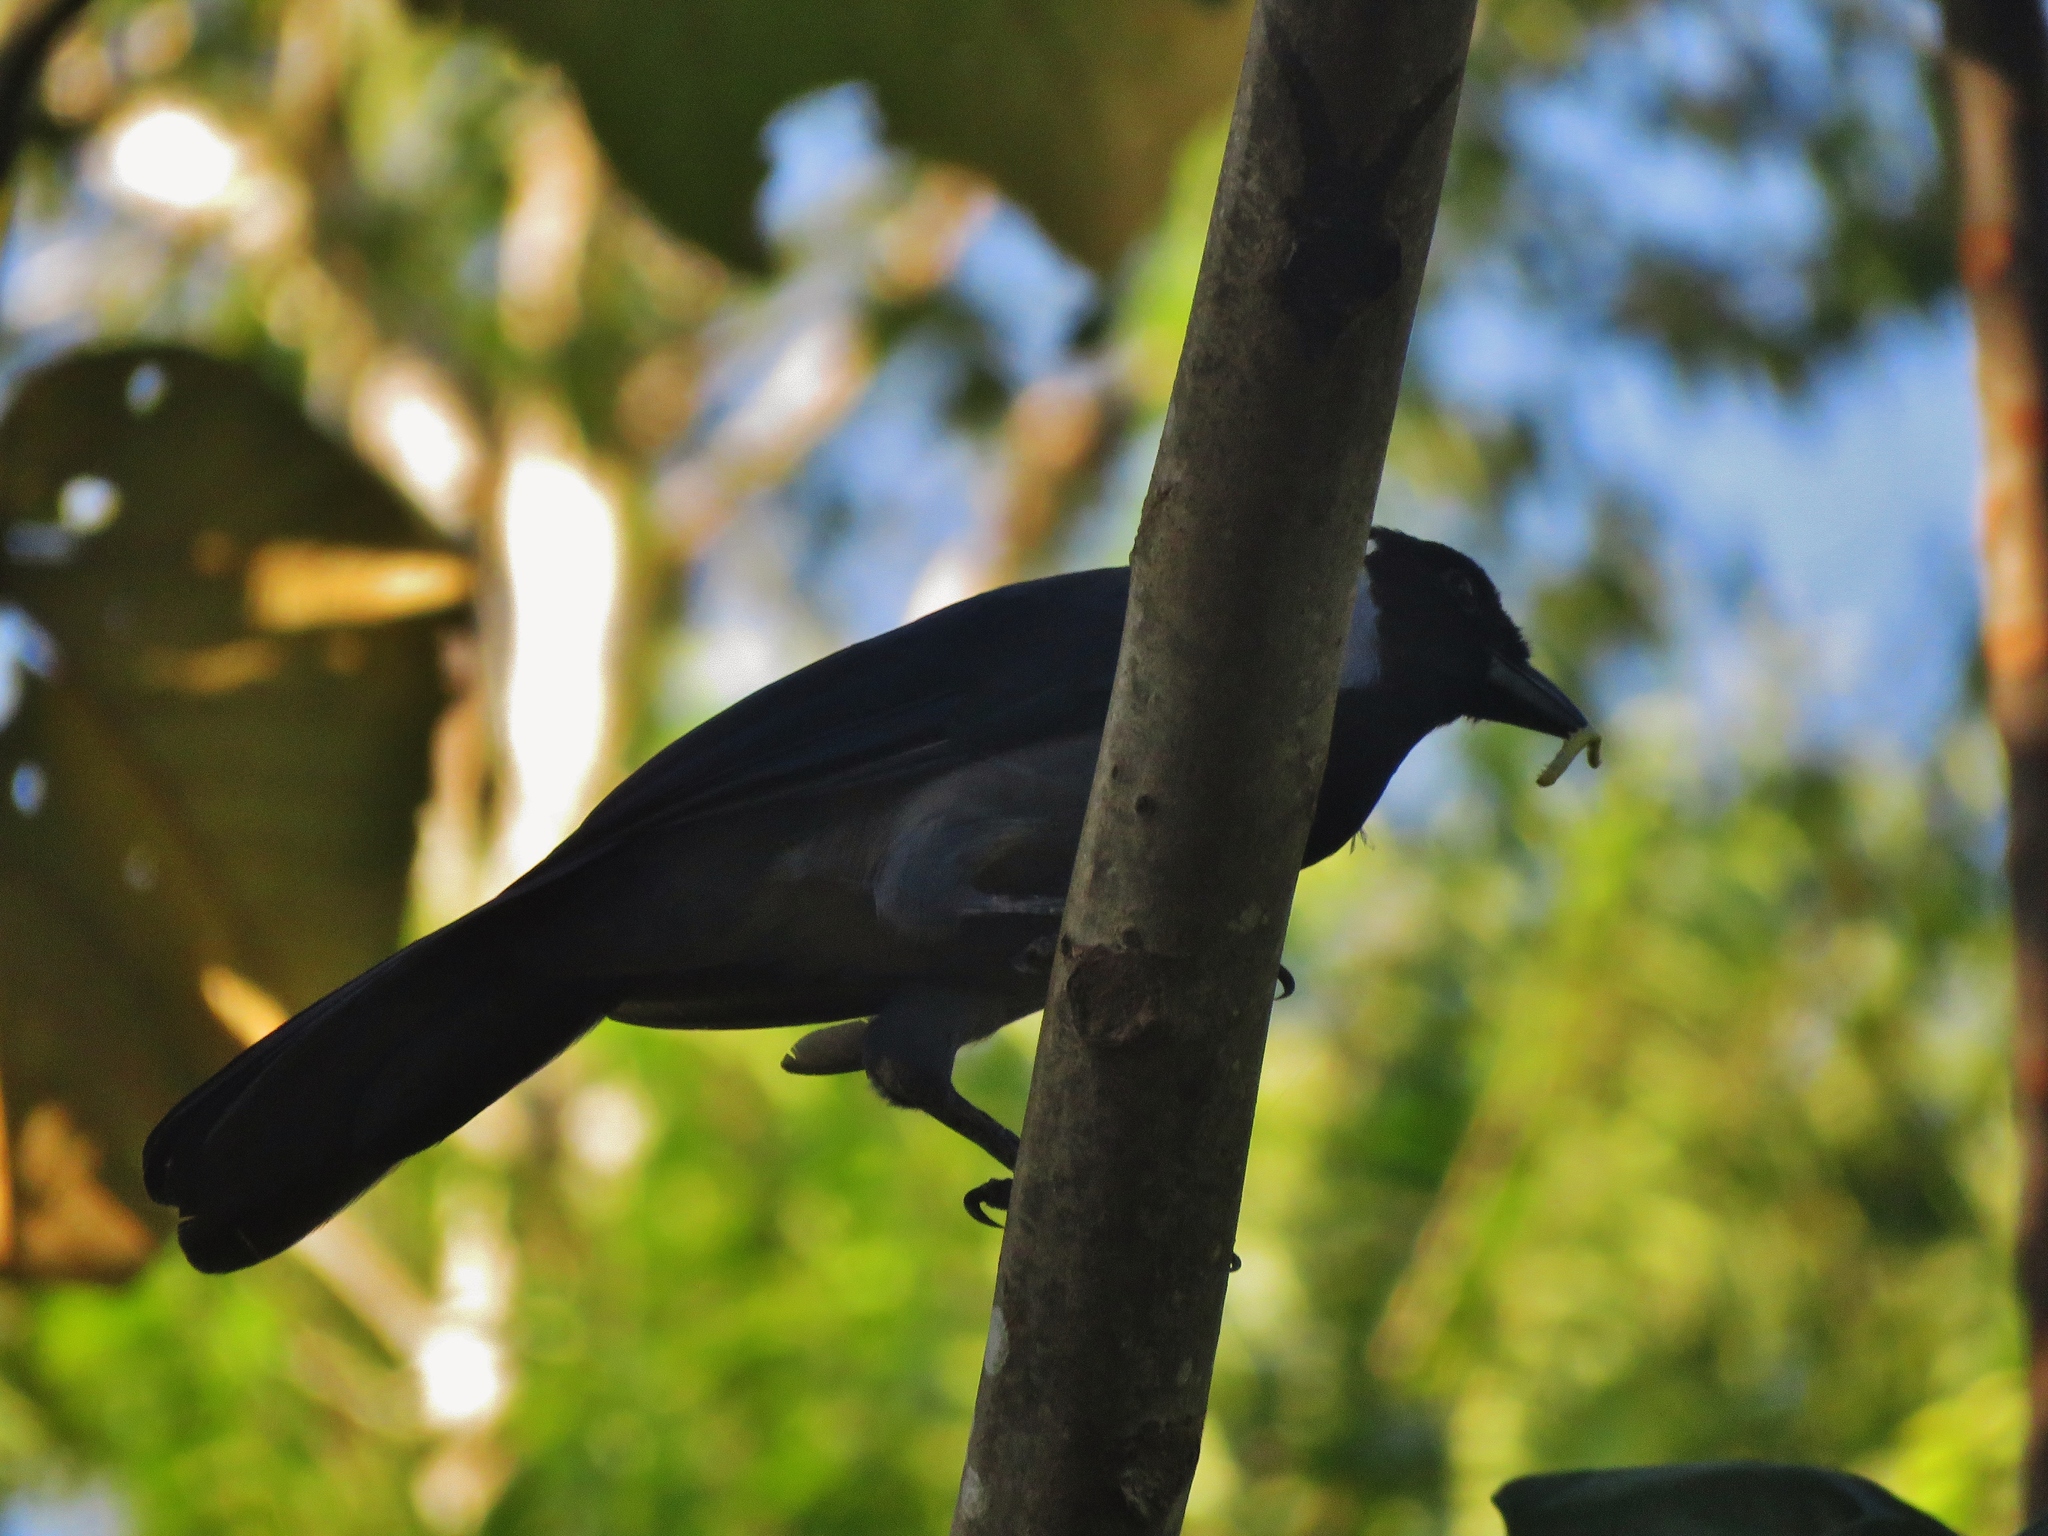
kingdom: Animalia
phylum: Chordata
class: Aves
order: Passeriformes
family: Corvidae
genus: Cyanocorax
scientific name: Cyanocorax violaceus
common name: Violaceous jay
